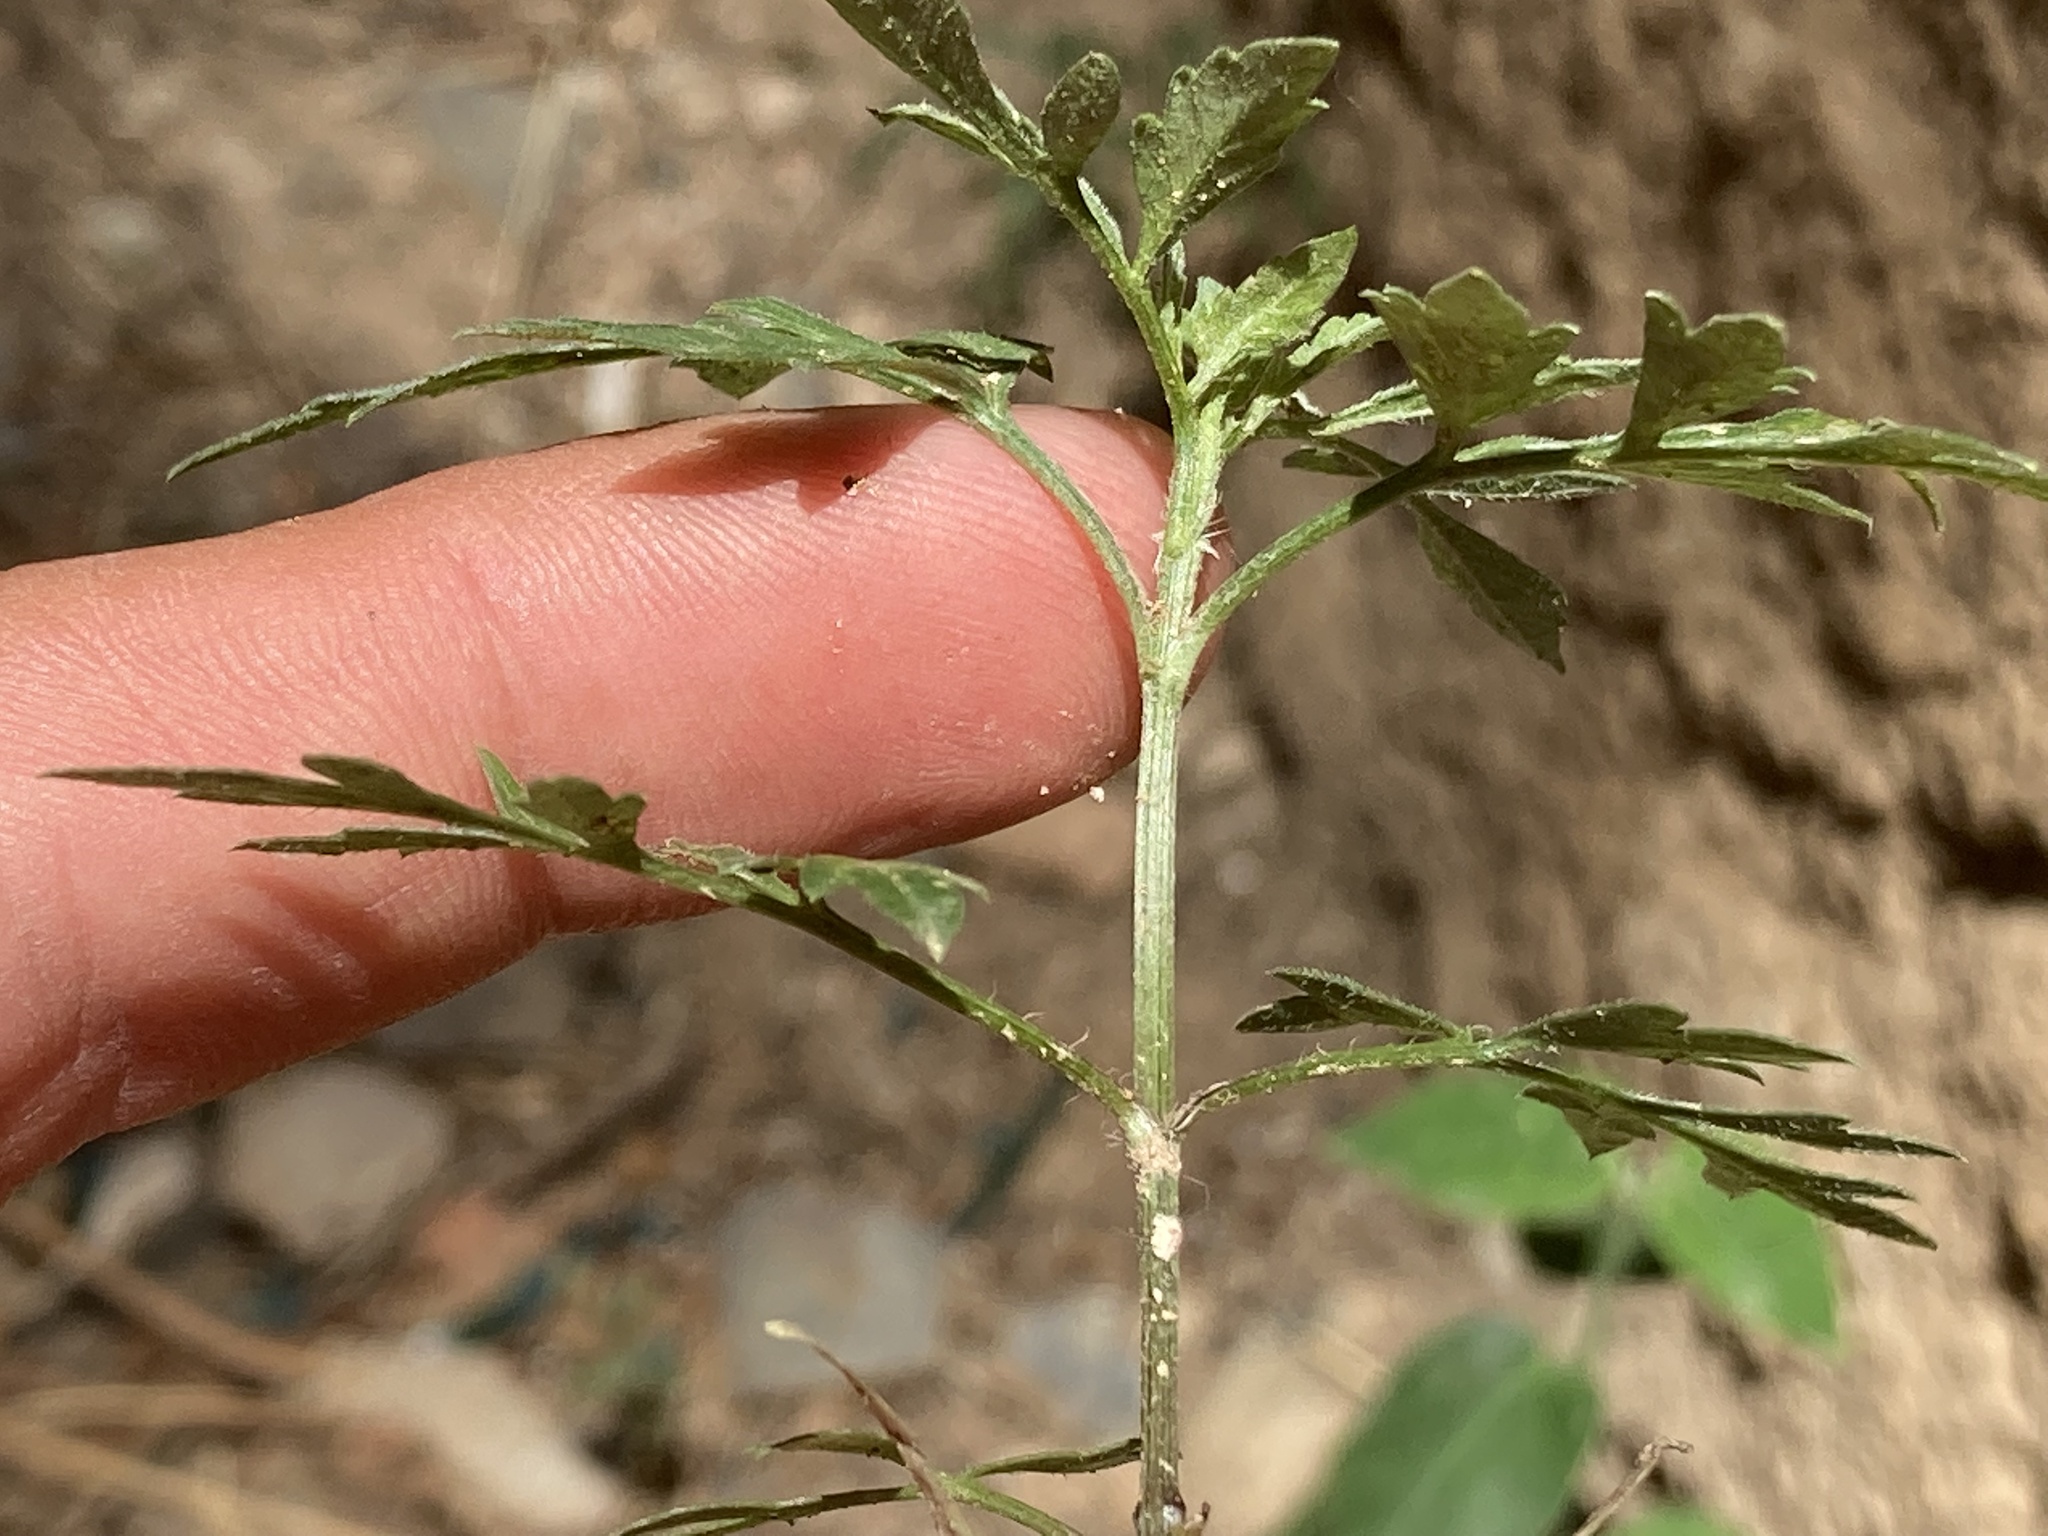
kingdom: Plantae
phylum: Tracheophyta
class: Magnoliopsida
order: Asterales
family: Asteraceae
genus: Bidens
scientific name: Bidens subalternans
